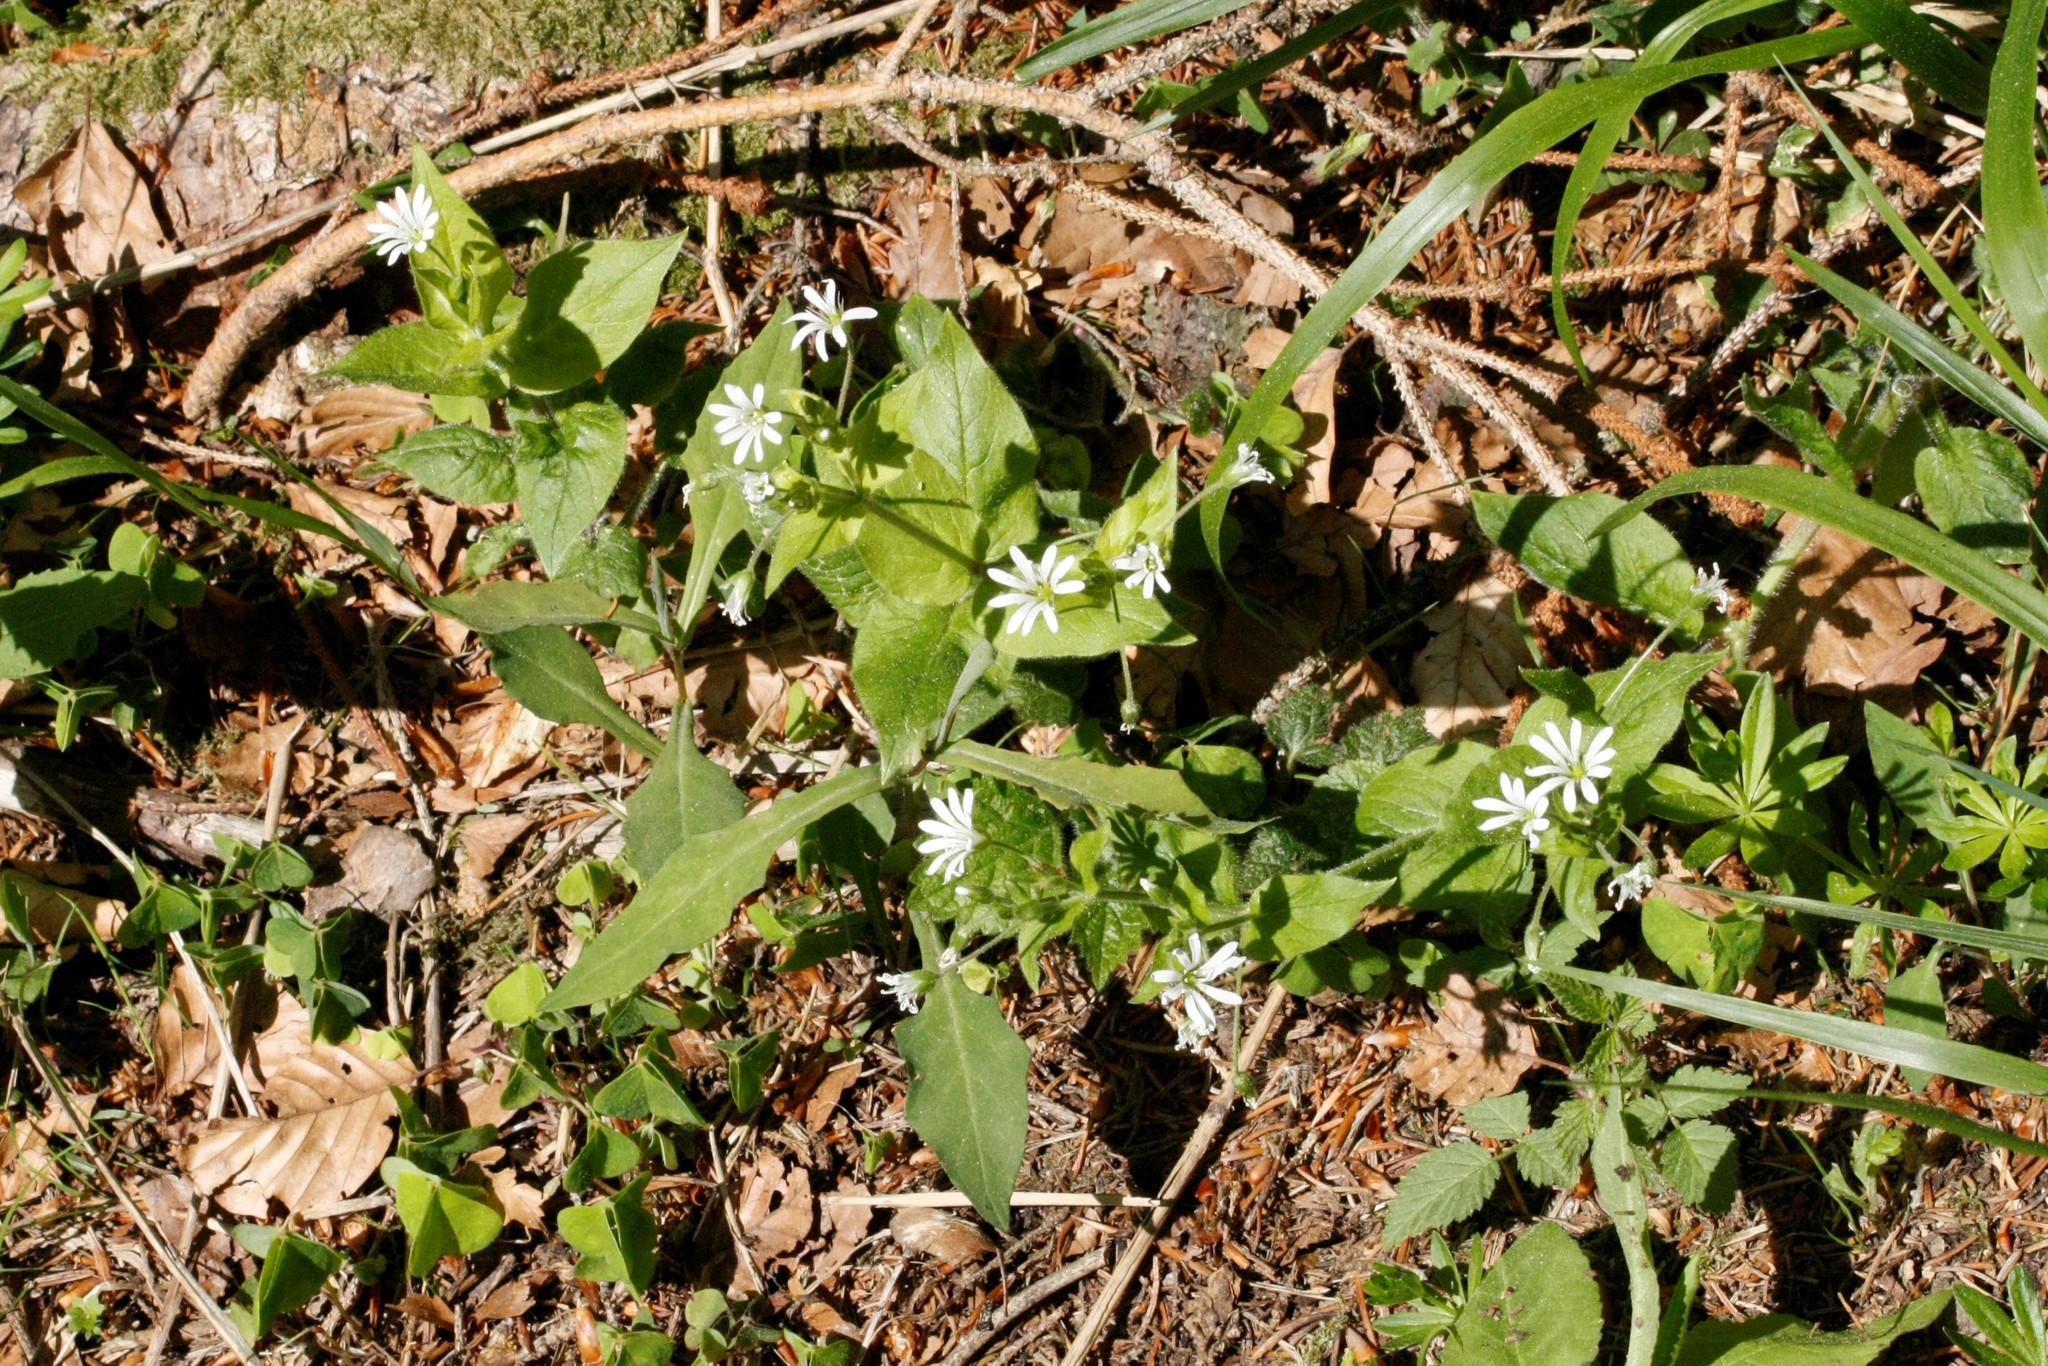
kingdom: Plantae
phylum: Tracheophyta
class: Magnoliopsida
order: Caryophyllales
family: Caryophyllaceae
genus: Stellaria
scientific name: Stellaria nemorum
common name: Wood stitchwort
